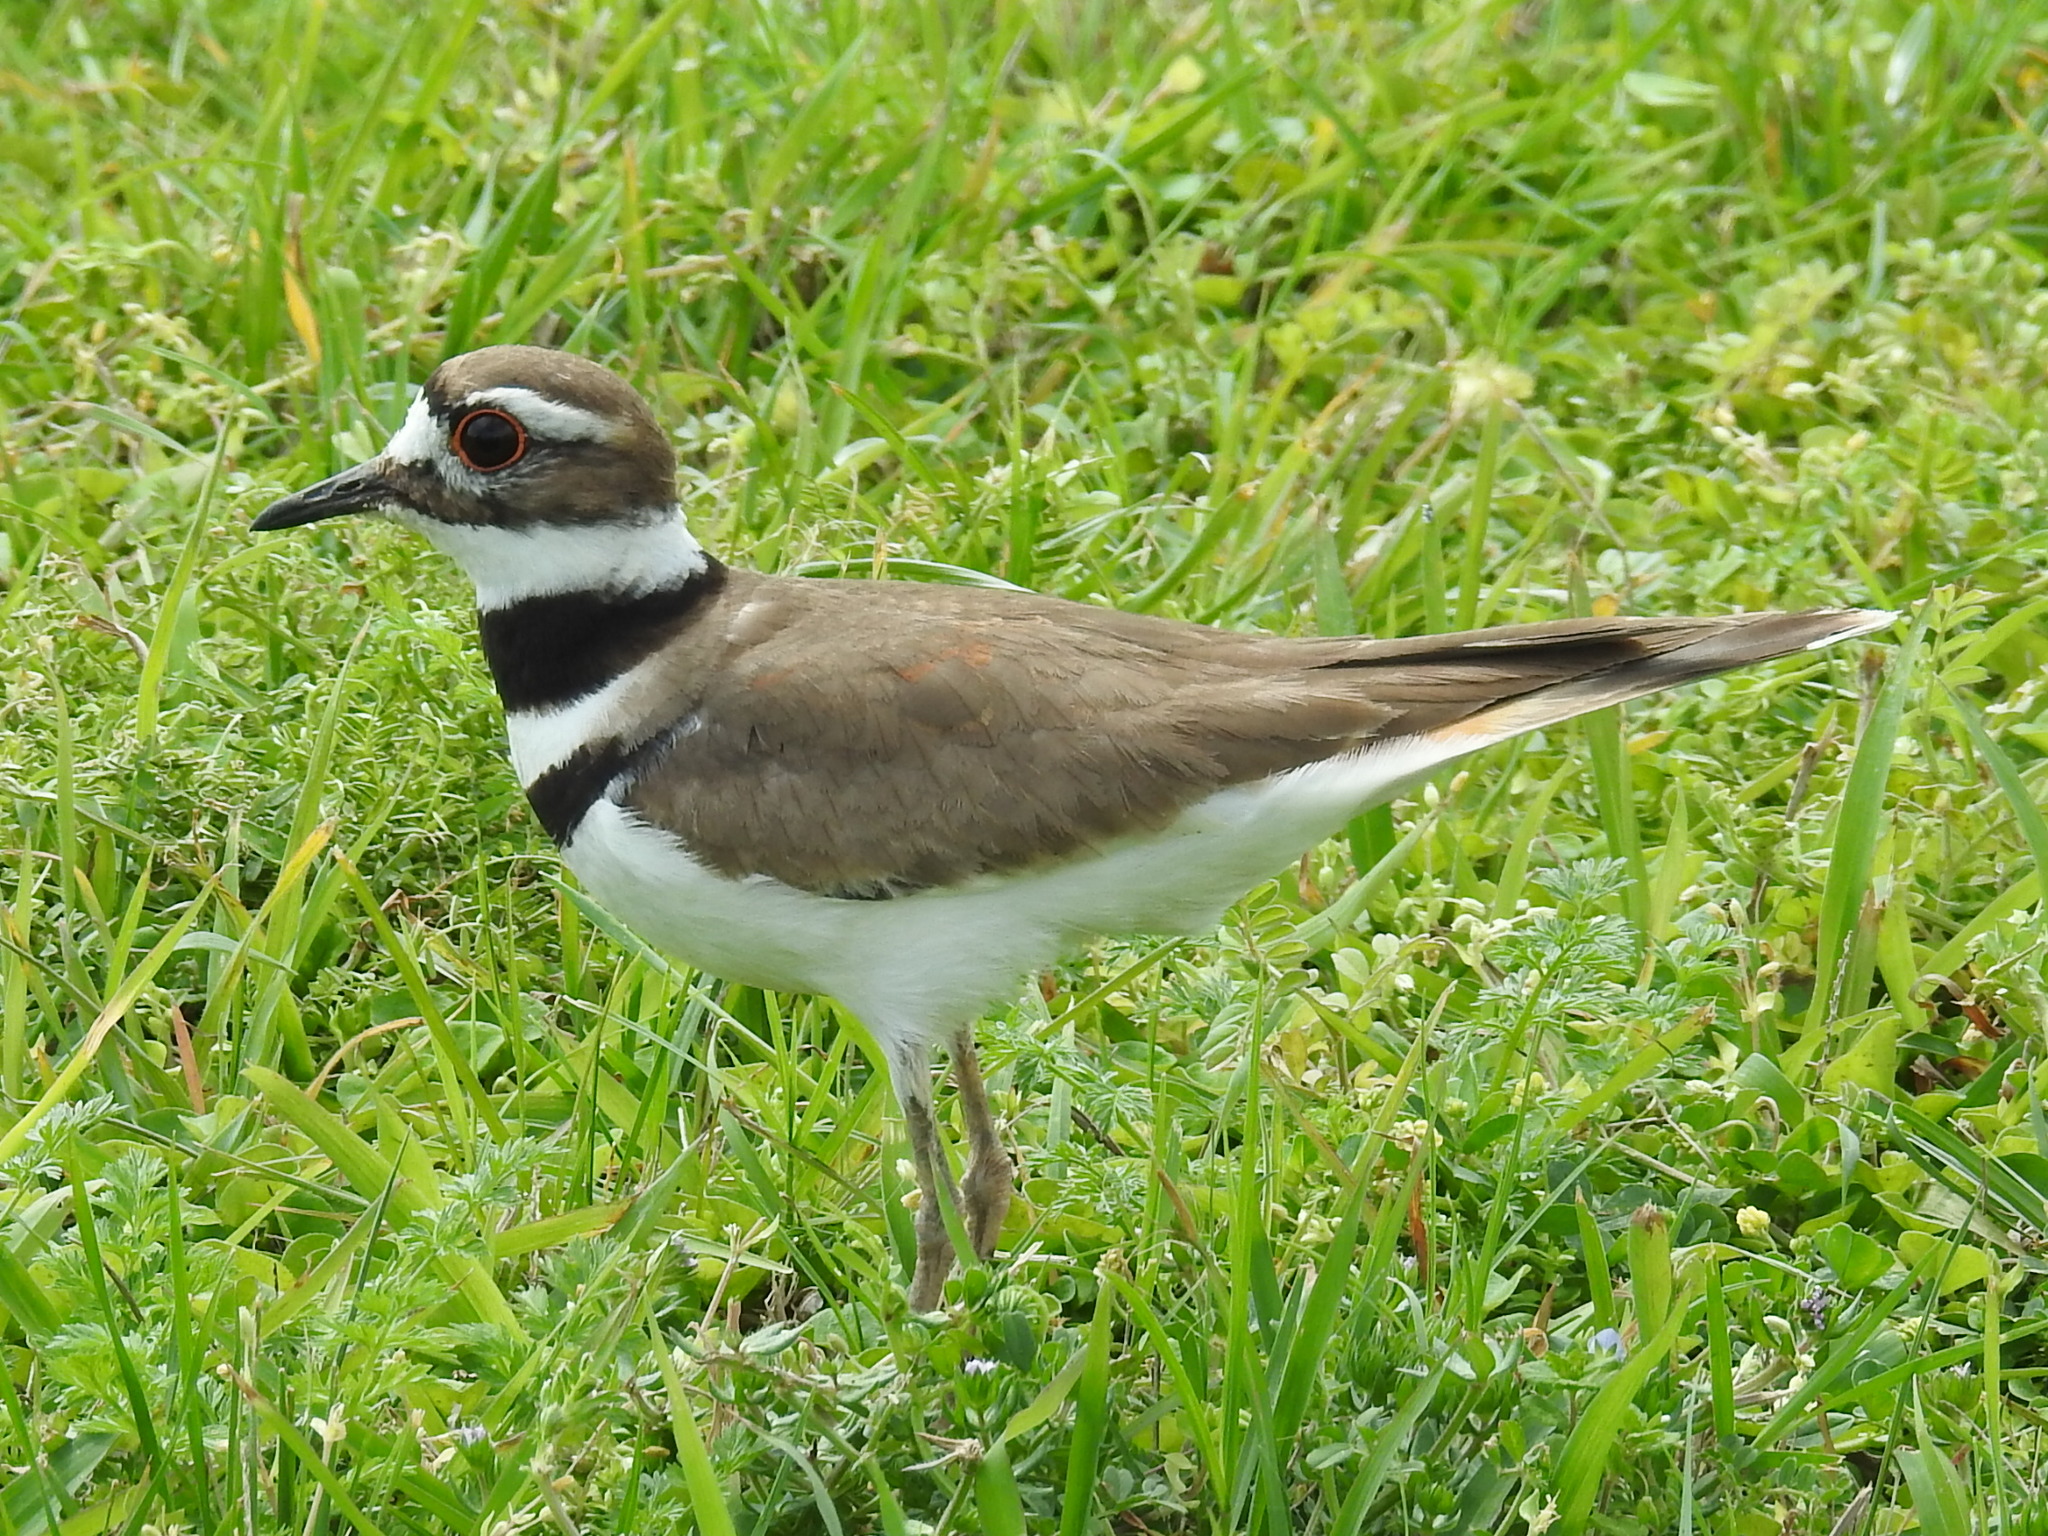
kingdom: Animalia
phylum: Chordata
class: Aves
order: Charadriiformes
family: Charadriidae
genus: Charadrius
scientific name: Charadrius vociferus
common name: Killdeer
